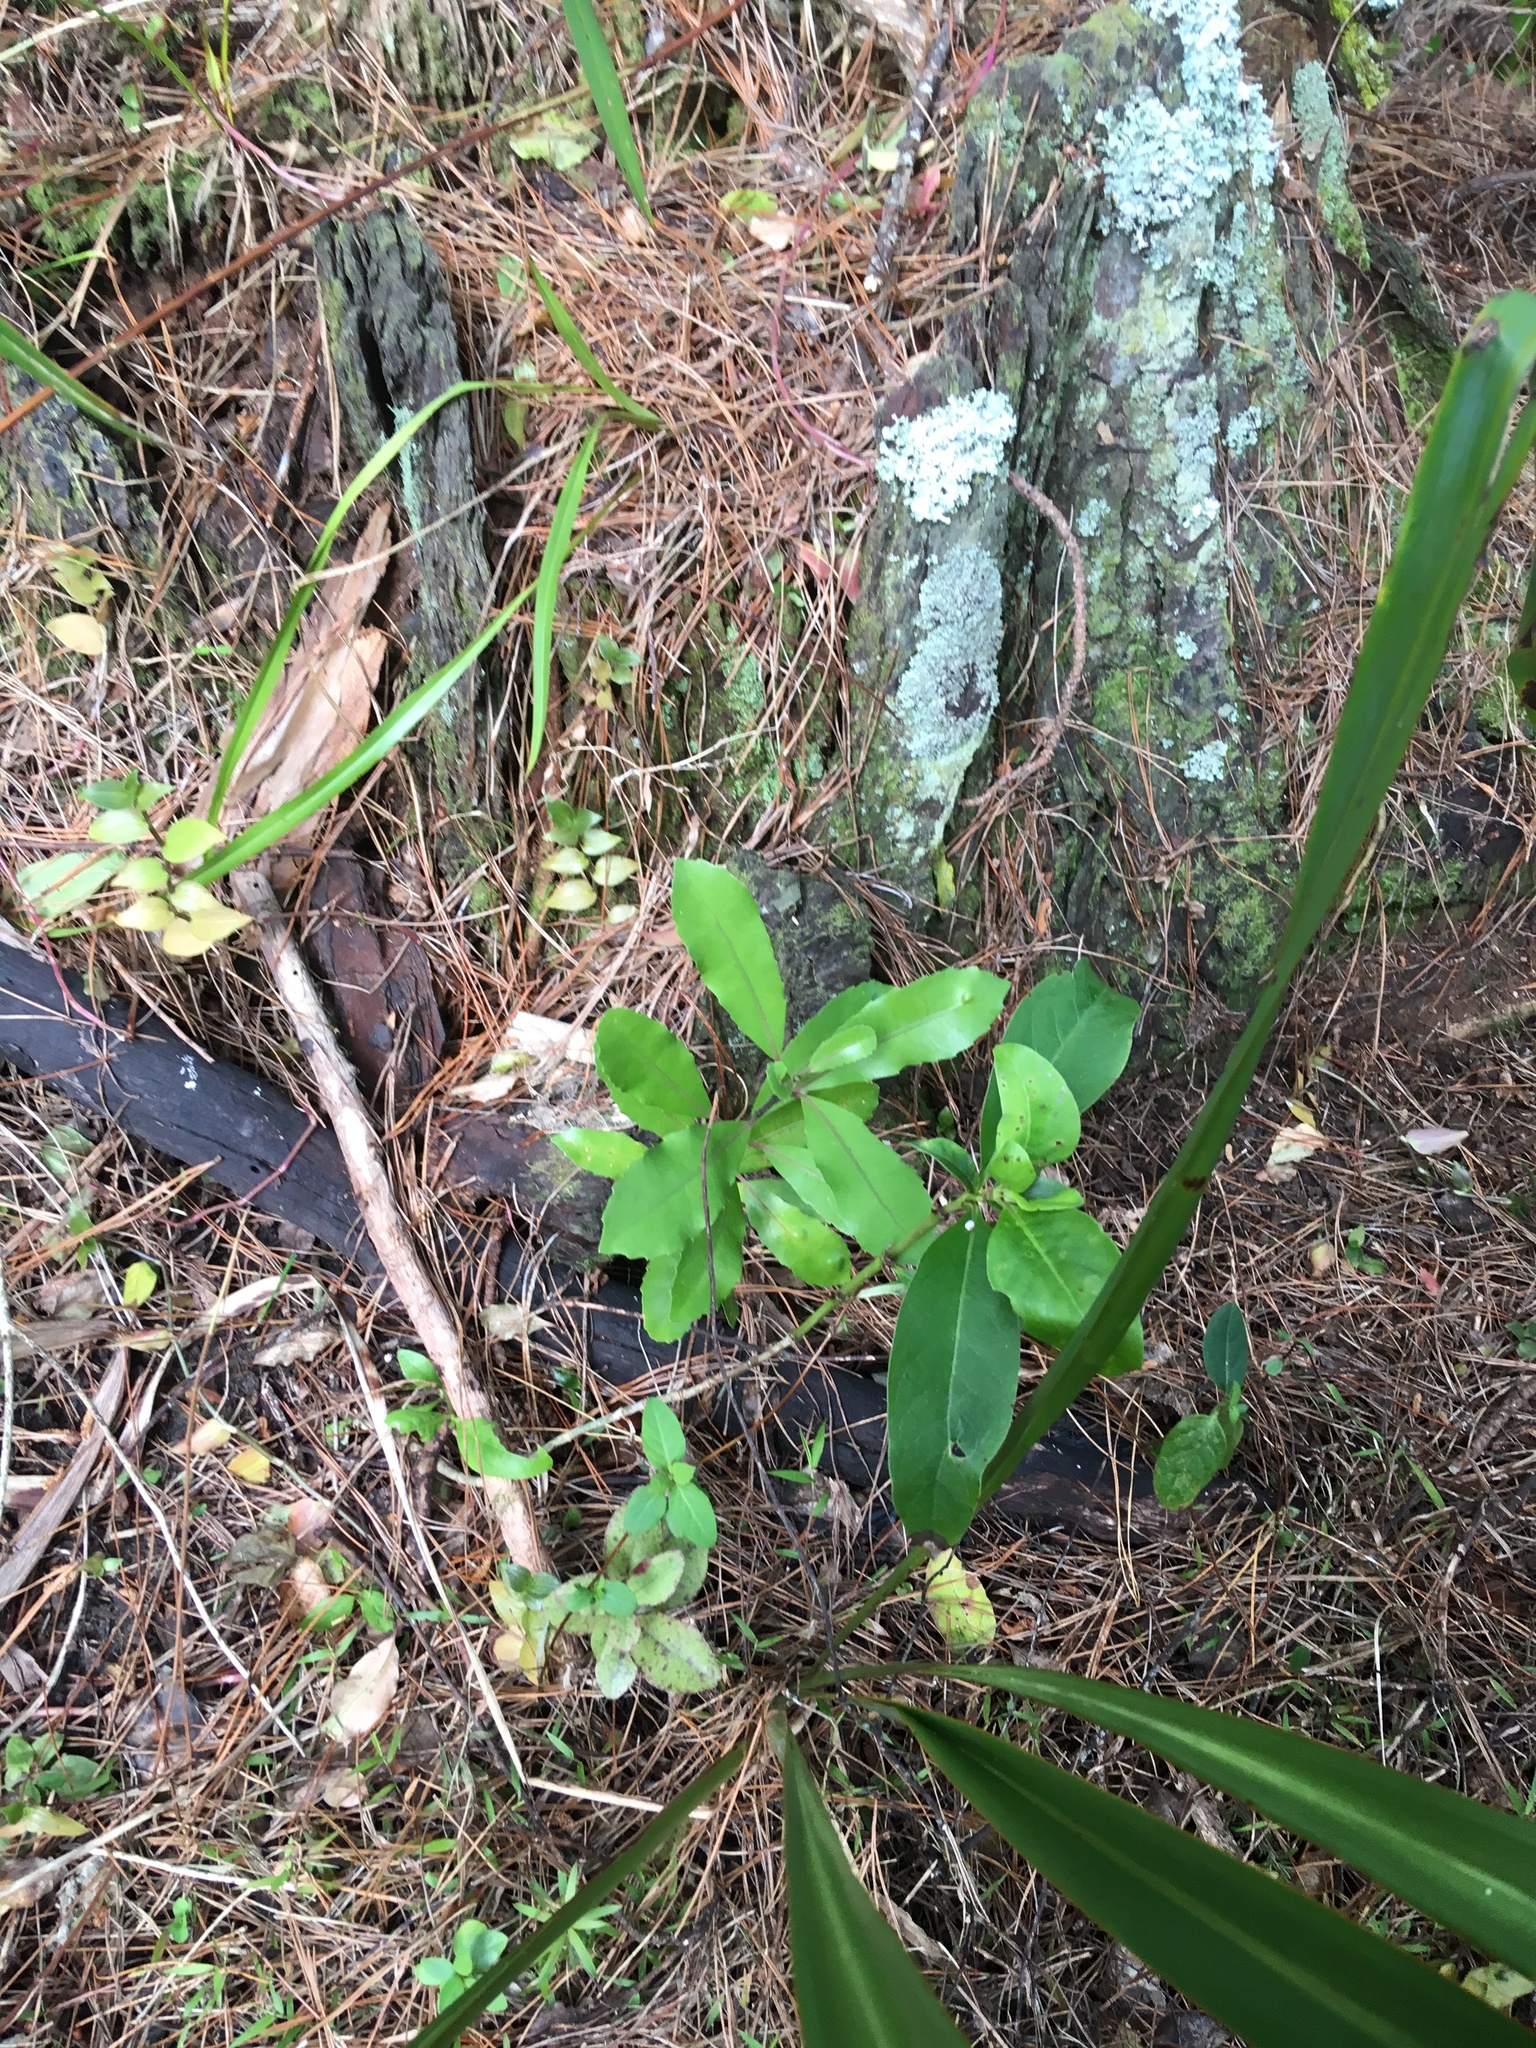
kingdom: Plantae
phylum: Tracheophyta
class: Liliopsida
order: Commelinales
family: Commelinaceae
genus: Tradescantia
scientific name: Tradescantia fluminensis
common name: Wandering-jew
